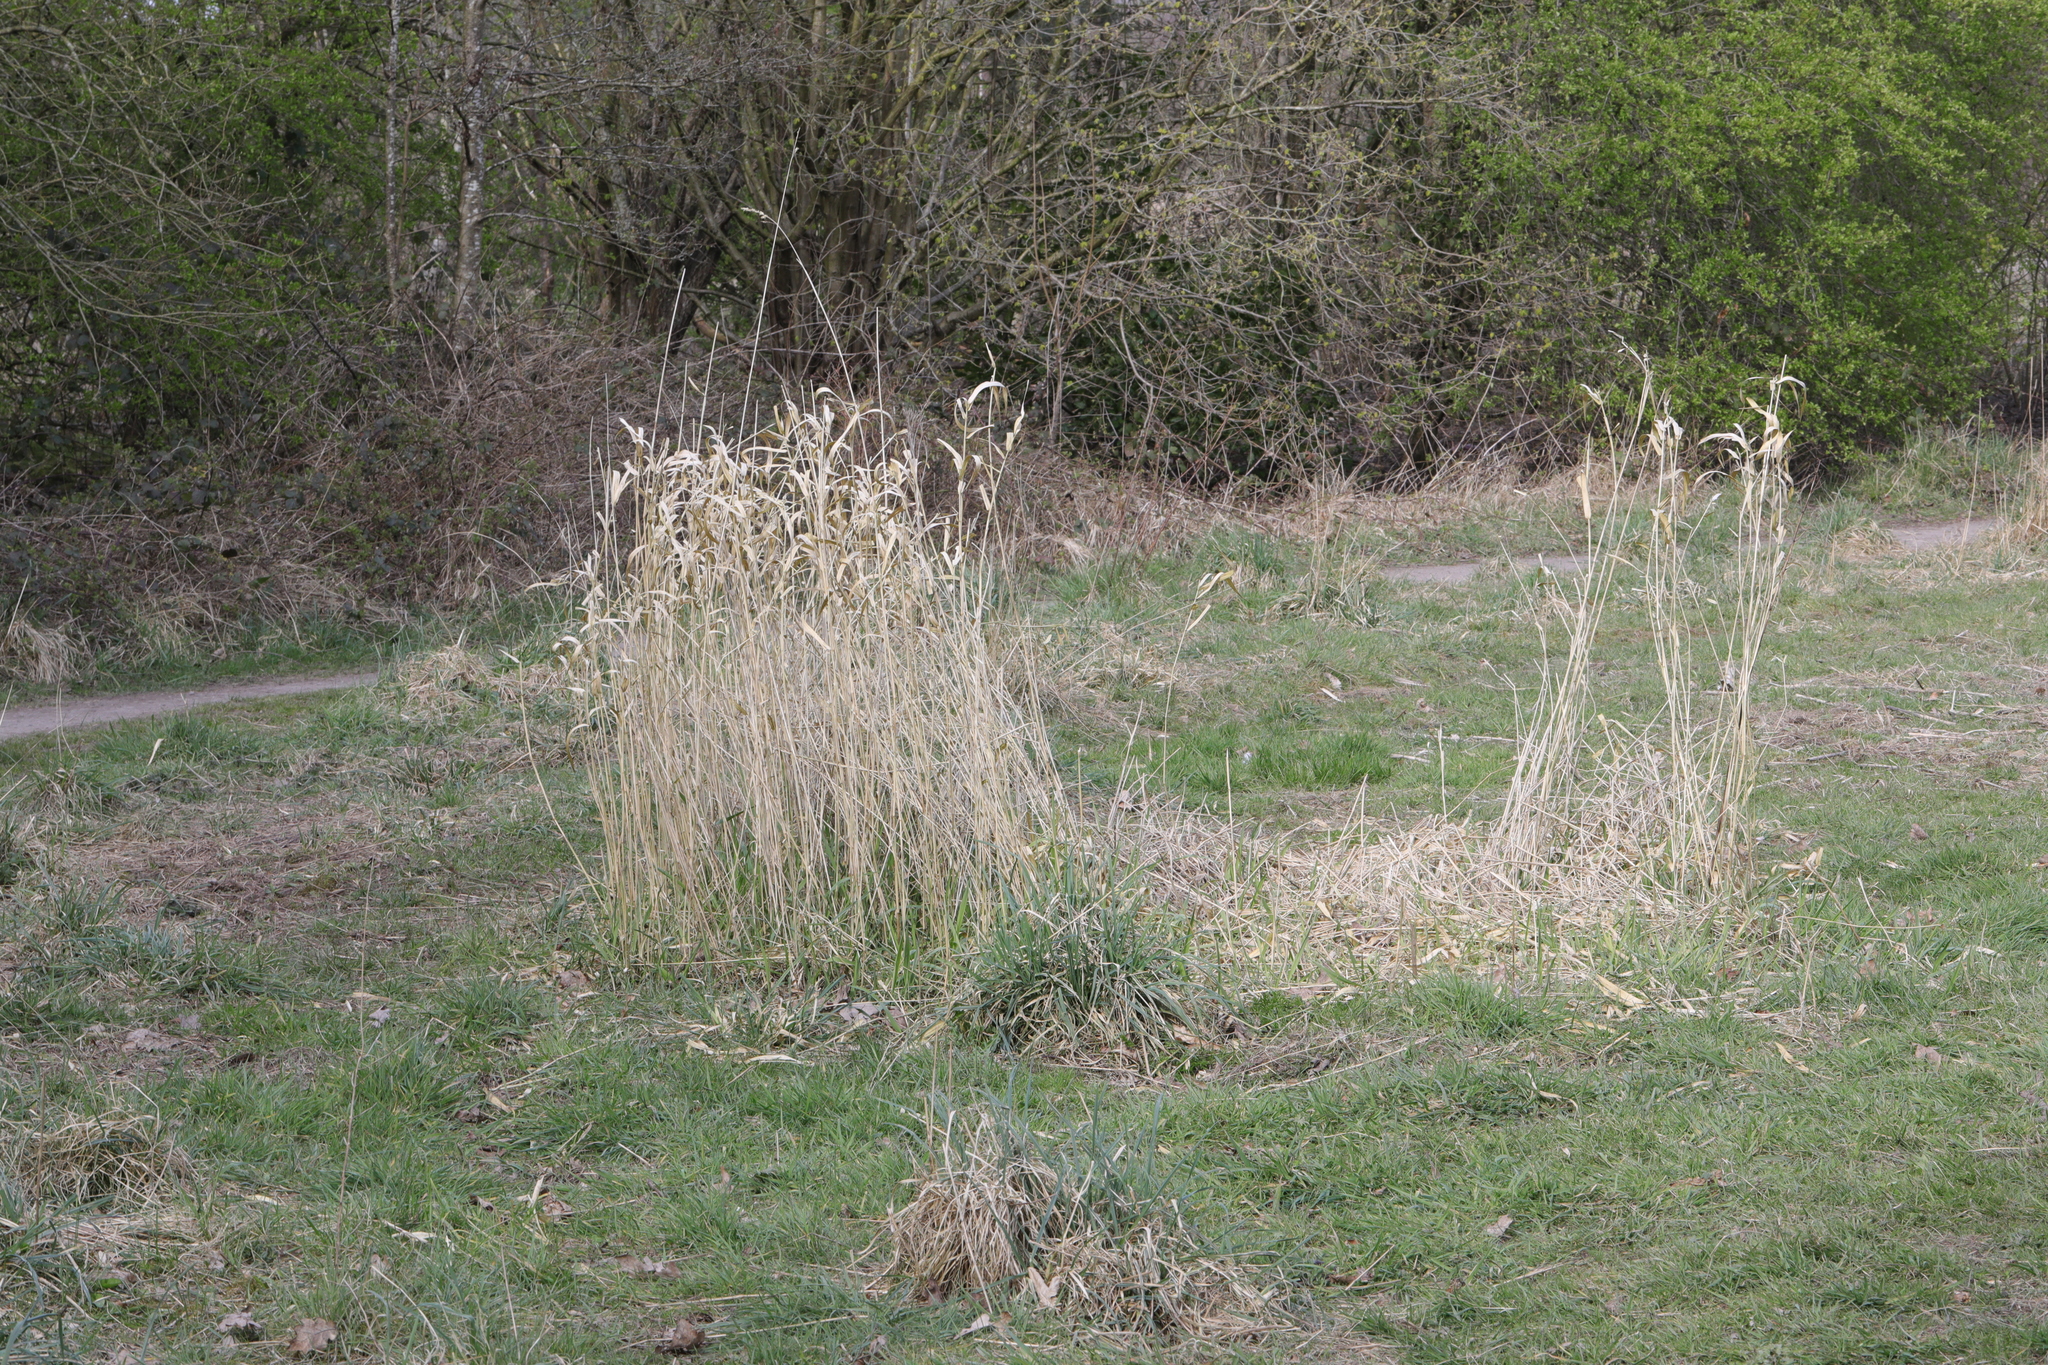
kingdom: Plantae
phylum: Tracheophyta
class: Liliopsida
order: Poales
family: Poaceae
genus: Phalaris
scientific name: Phalaris arundinacea
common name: Reed canary-grass
